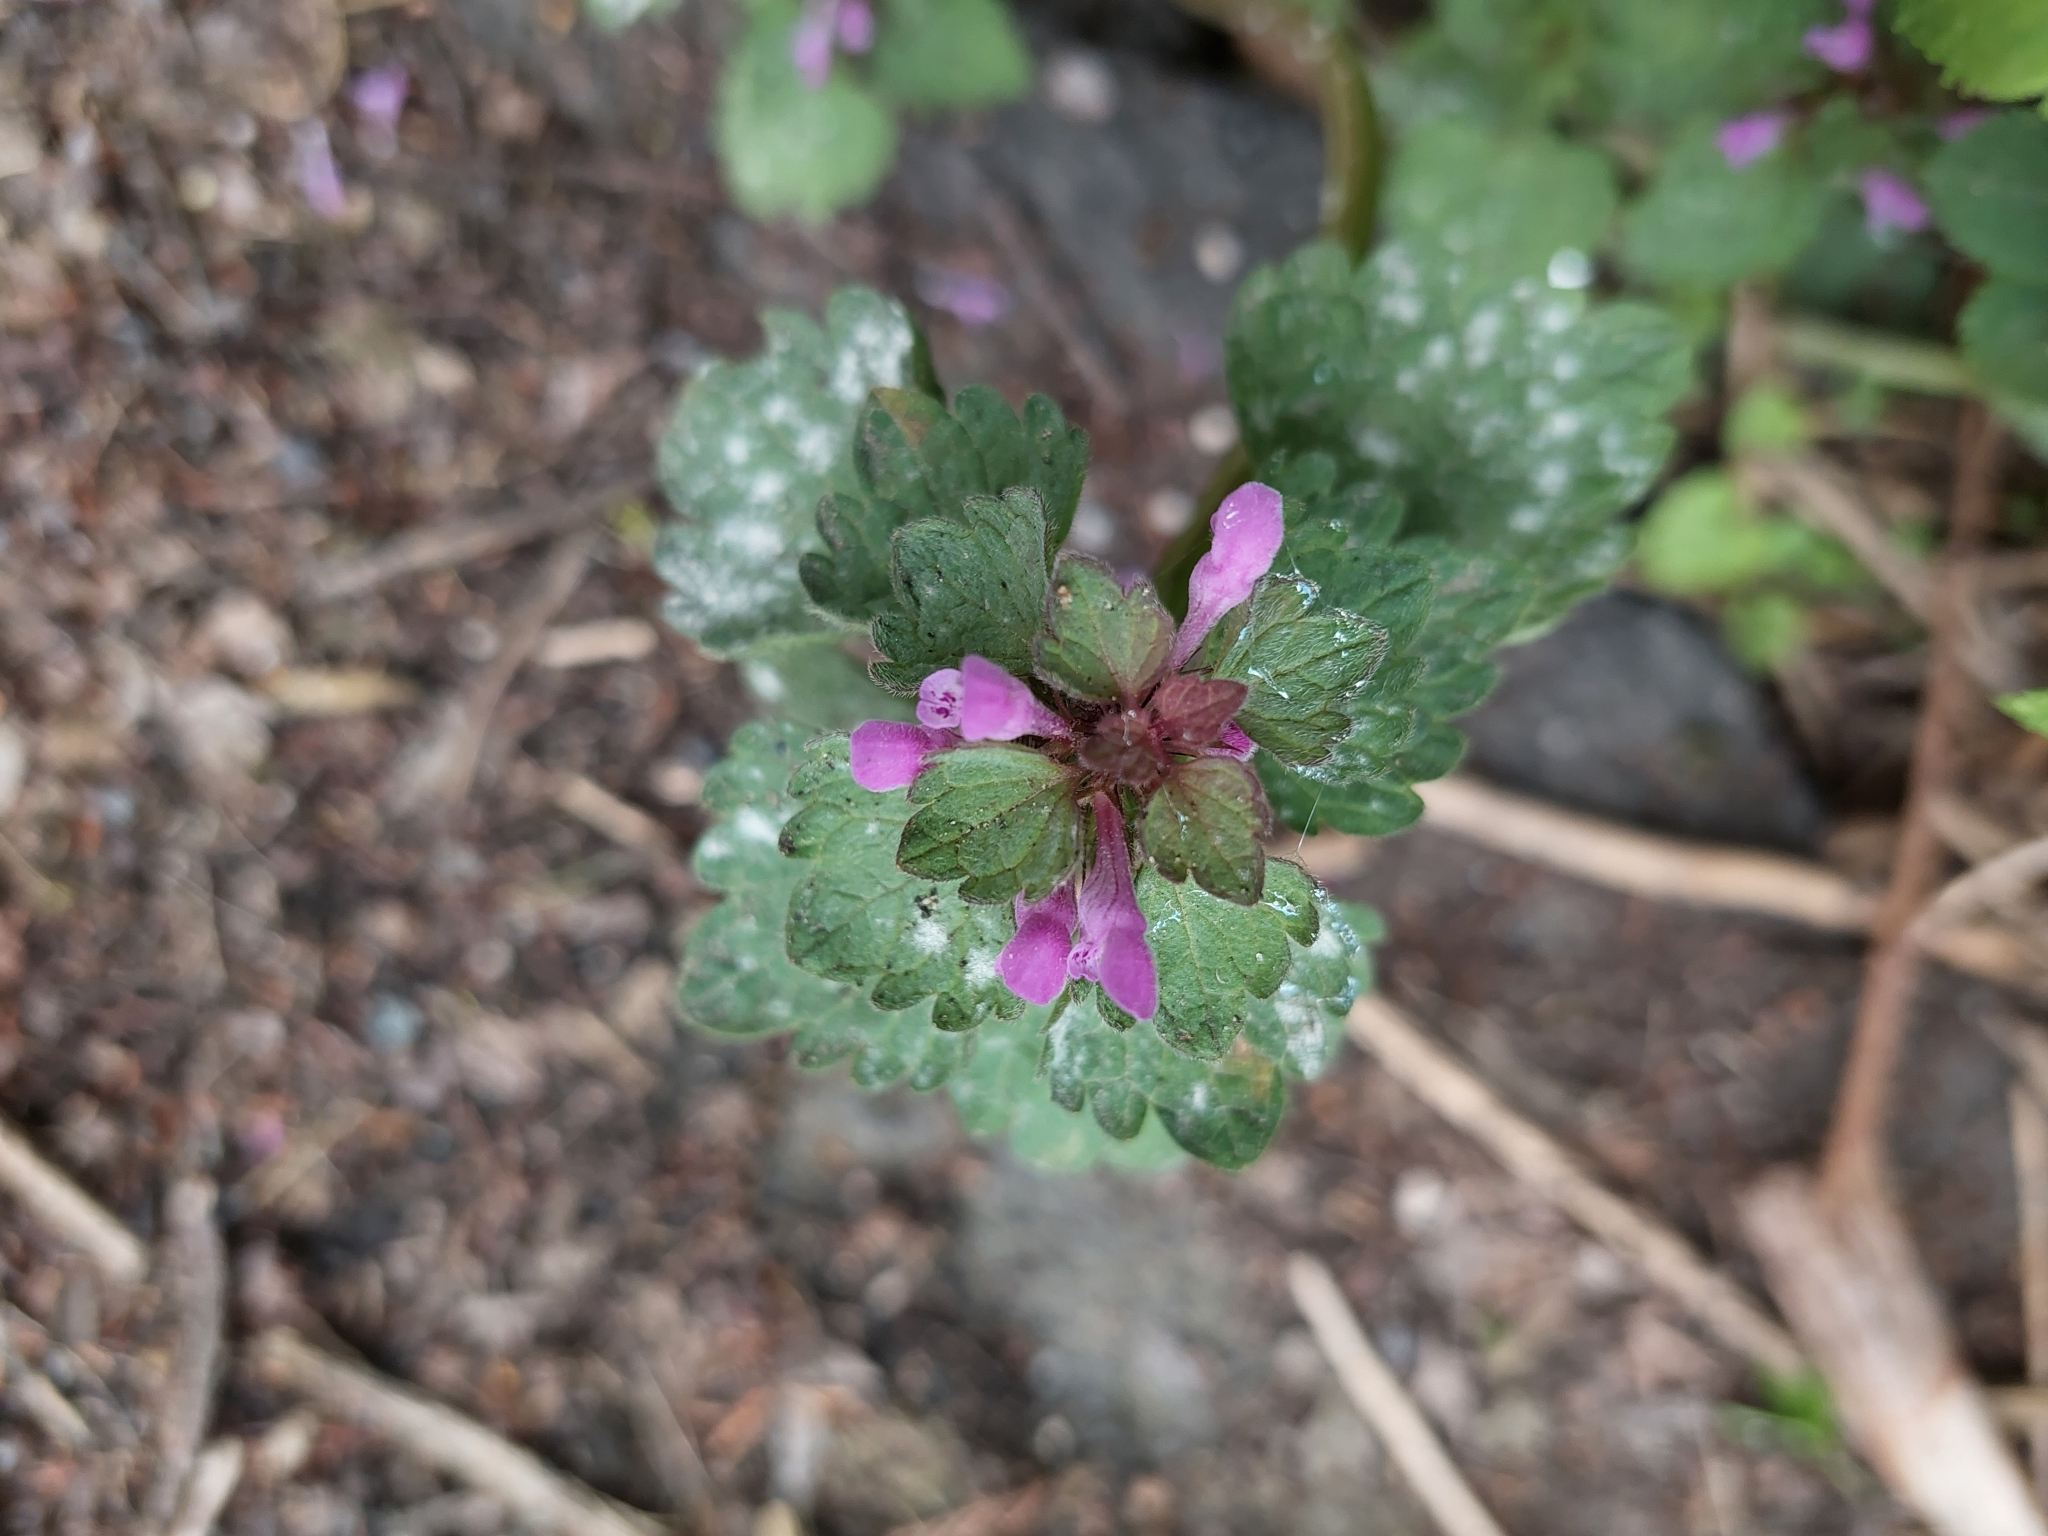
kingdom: Plantae
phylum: Tracheophyta
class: Magnoliopsida
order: Lamiales
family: Lamiaceae
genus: Lamium
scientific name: Lamium purpureum
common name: Red dead-nettle
